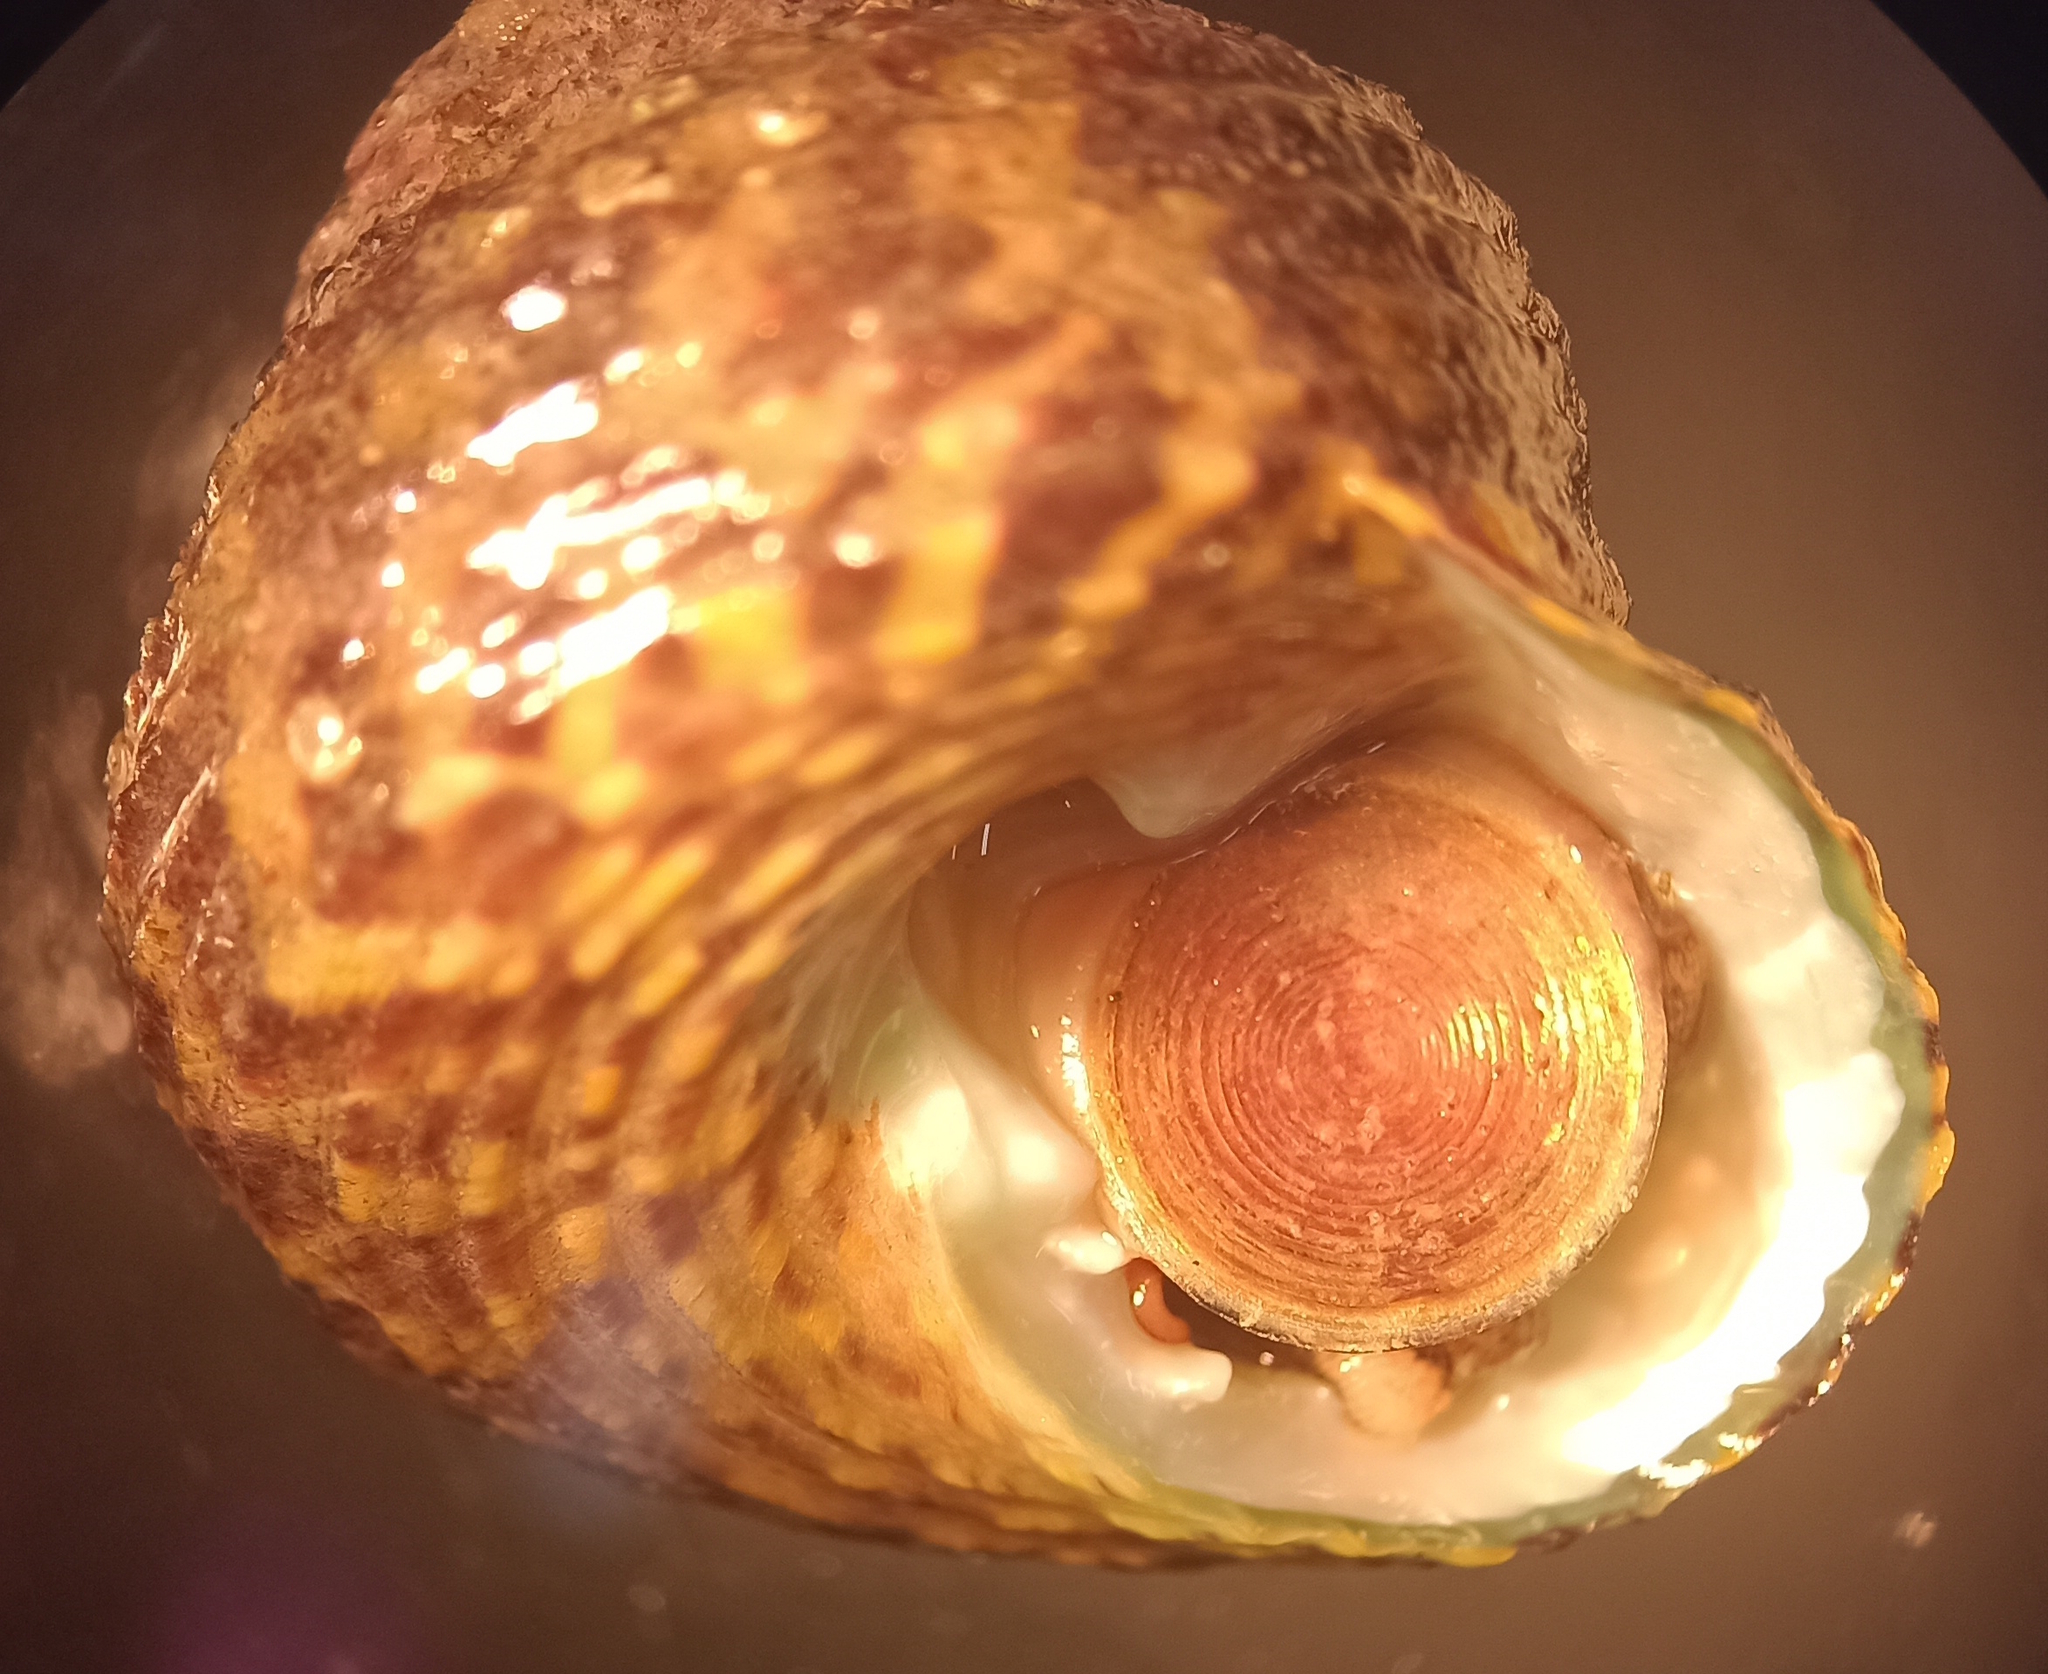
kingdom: Animalia
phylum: Mollusca
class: Gastropoda
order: Trochida
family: Tegulidae
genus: Agathistoma
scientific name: Agathistoma viridulum
